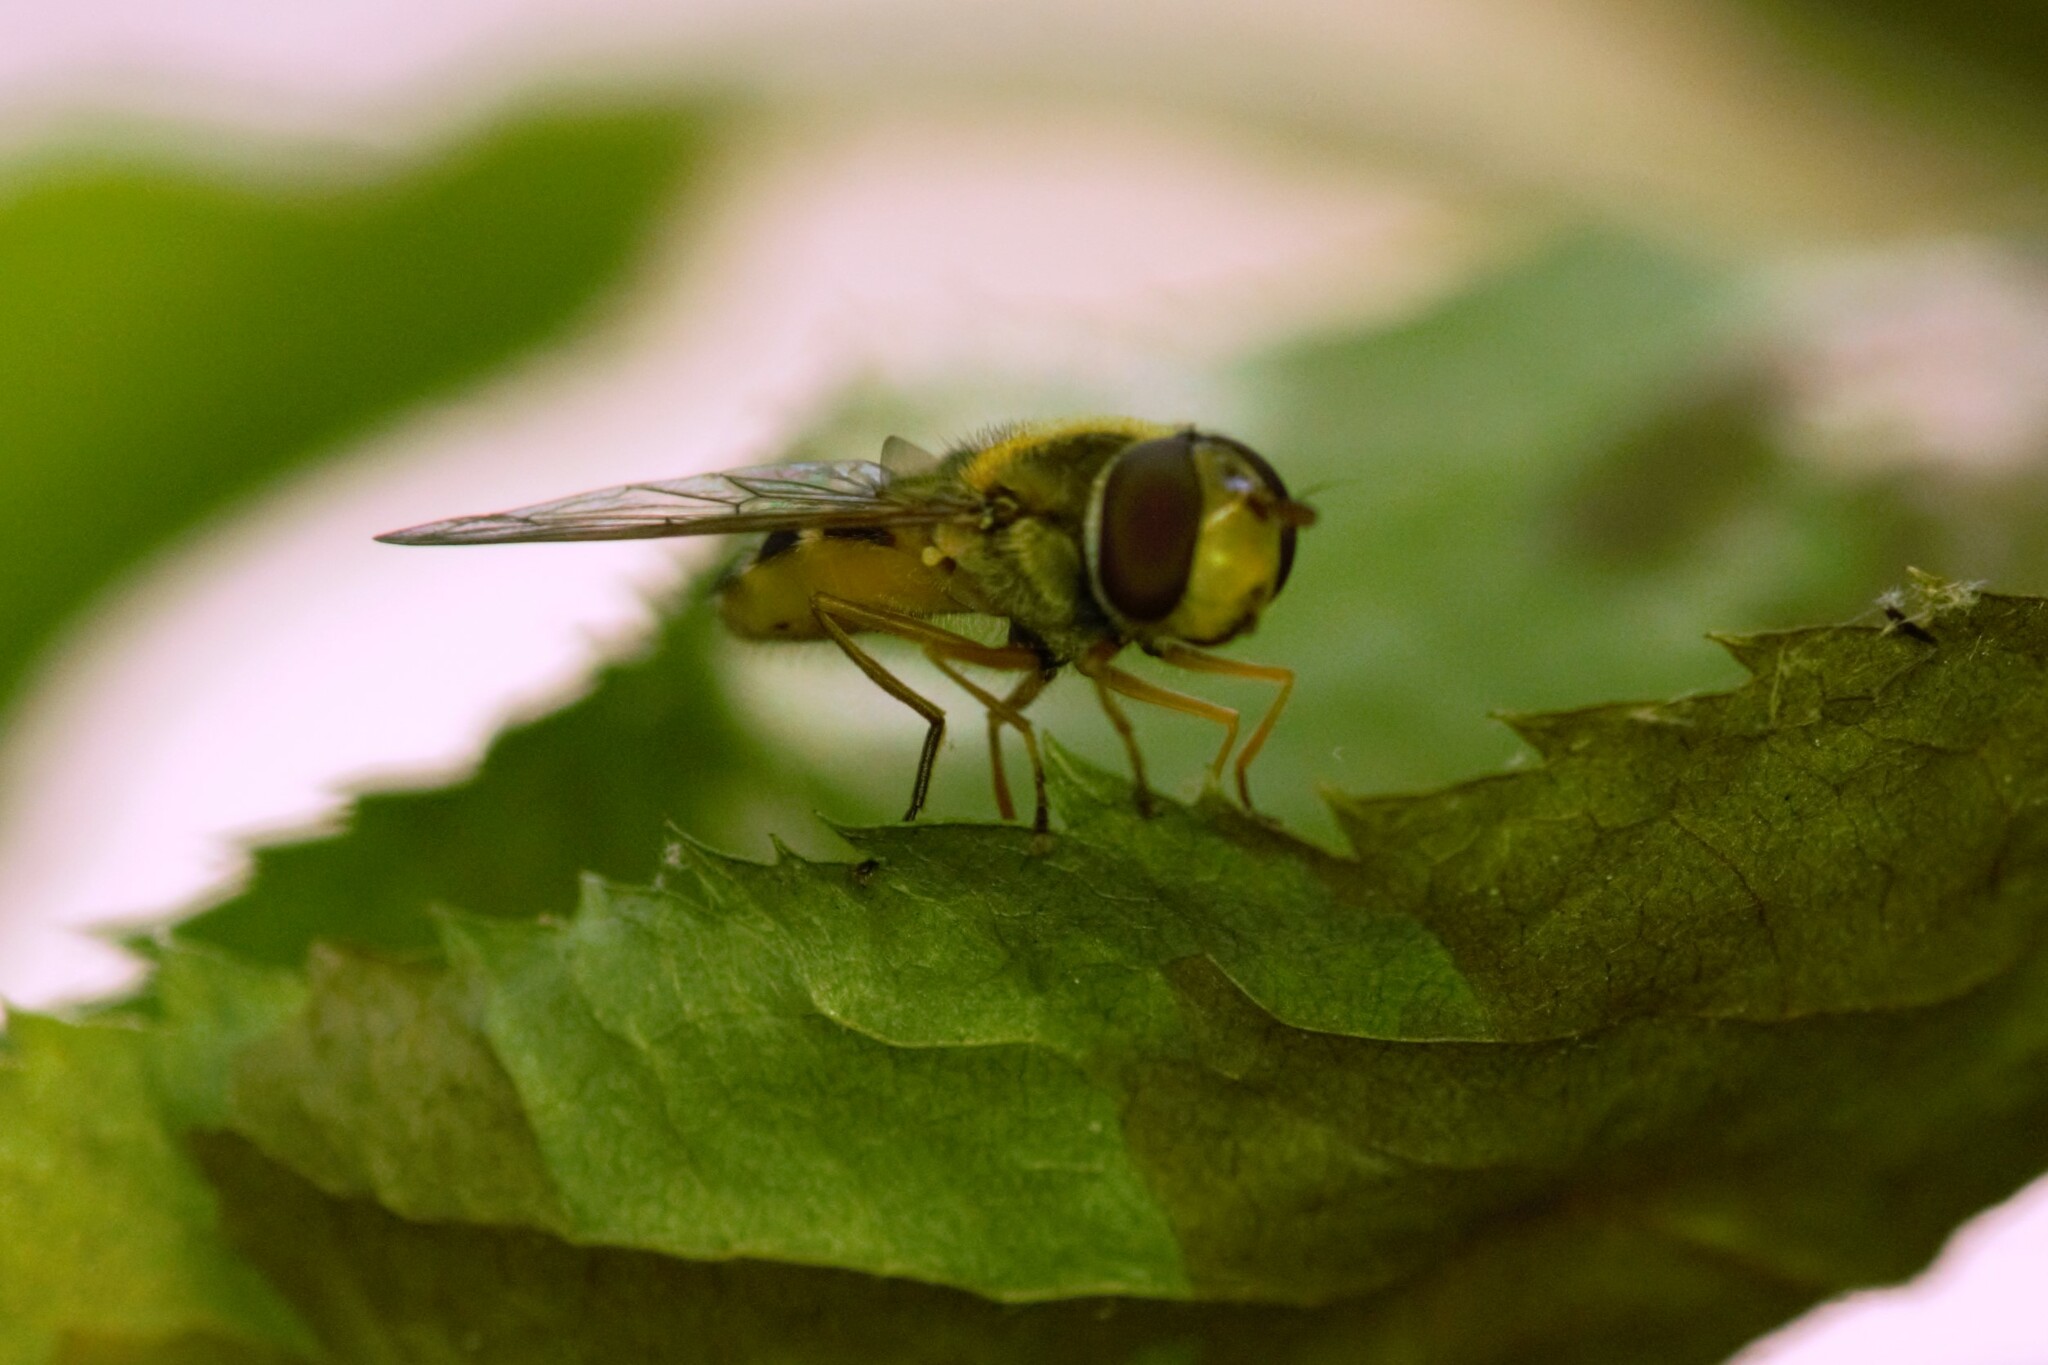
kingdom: Animalia
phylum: Arthropoda
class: Insecta
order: Diptera
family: Syrphidae
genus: Syrphus
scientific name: Syrphus ribesii
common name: Common flower fly
